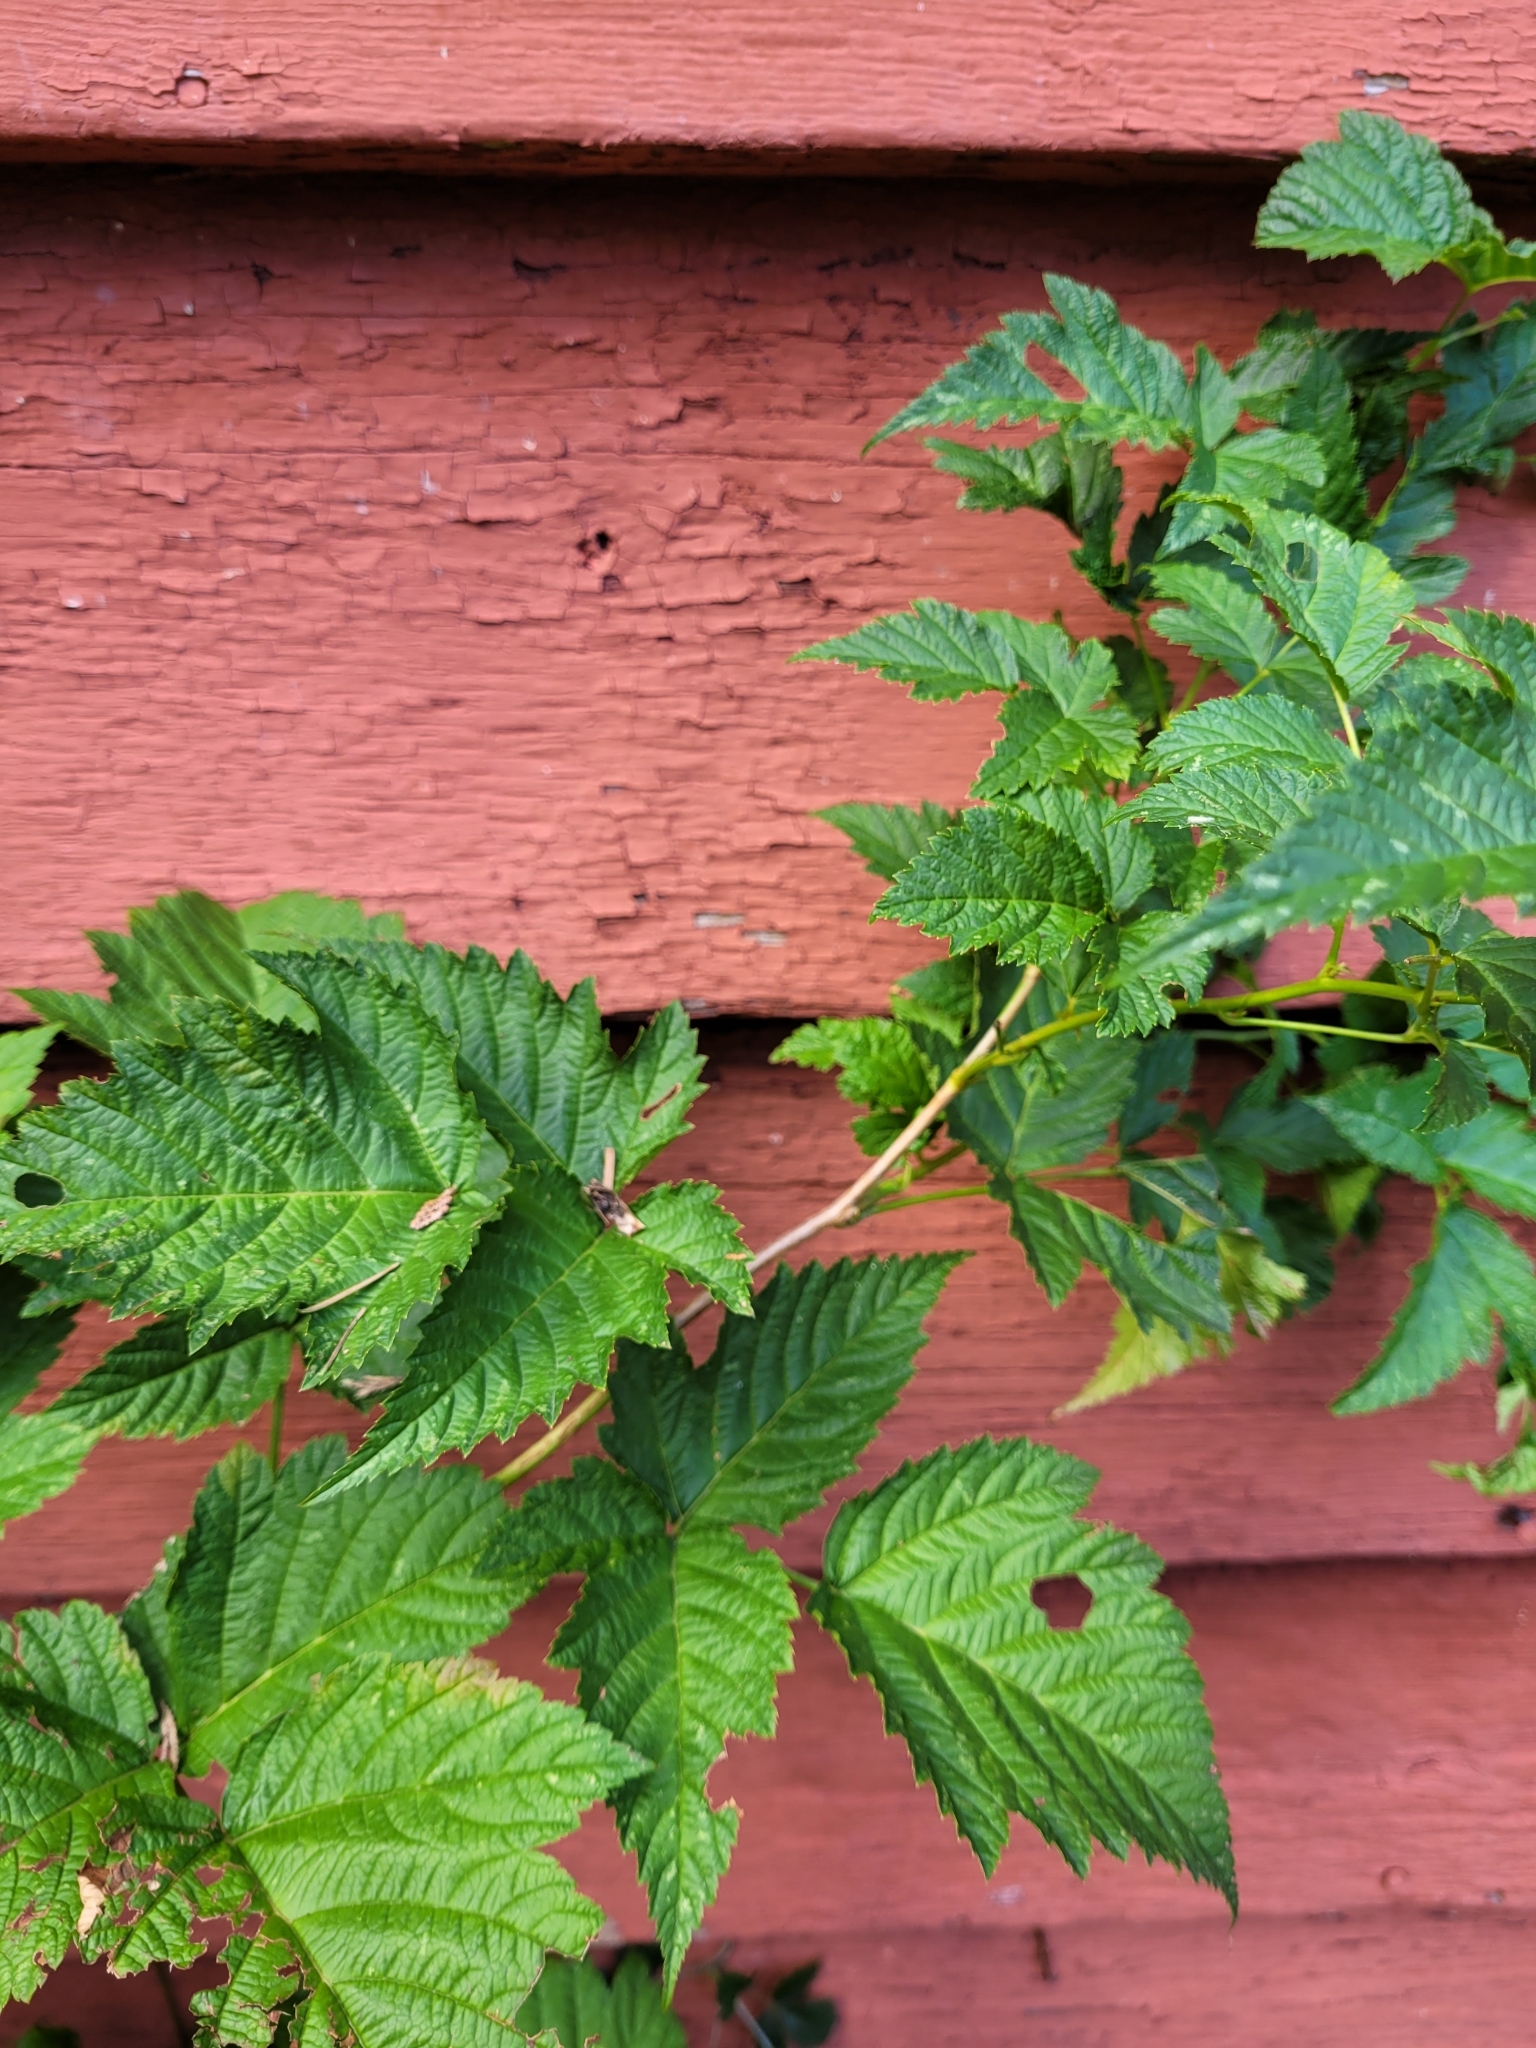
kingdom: Plantae
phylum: Tracheophyta
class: Magnoliopsida
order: Rosales
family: Rosaceae
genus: Rubus
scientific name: Rubus spectabilis
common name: Salmonberry
